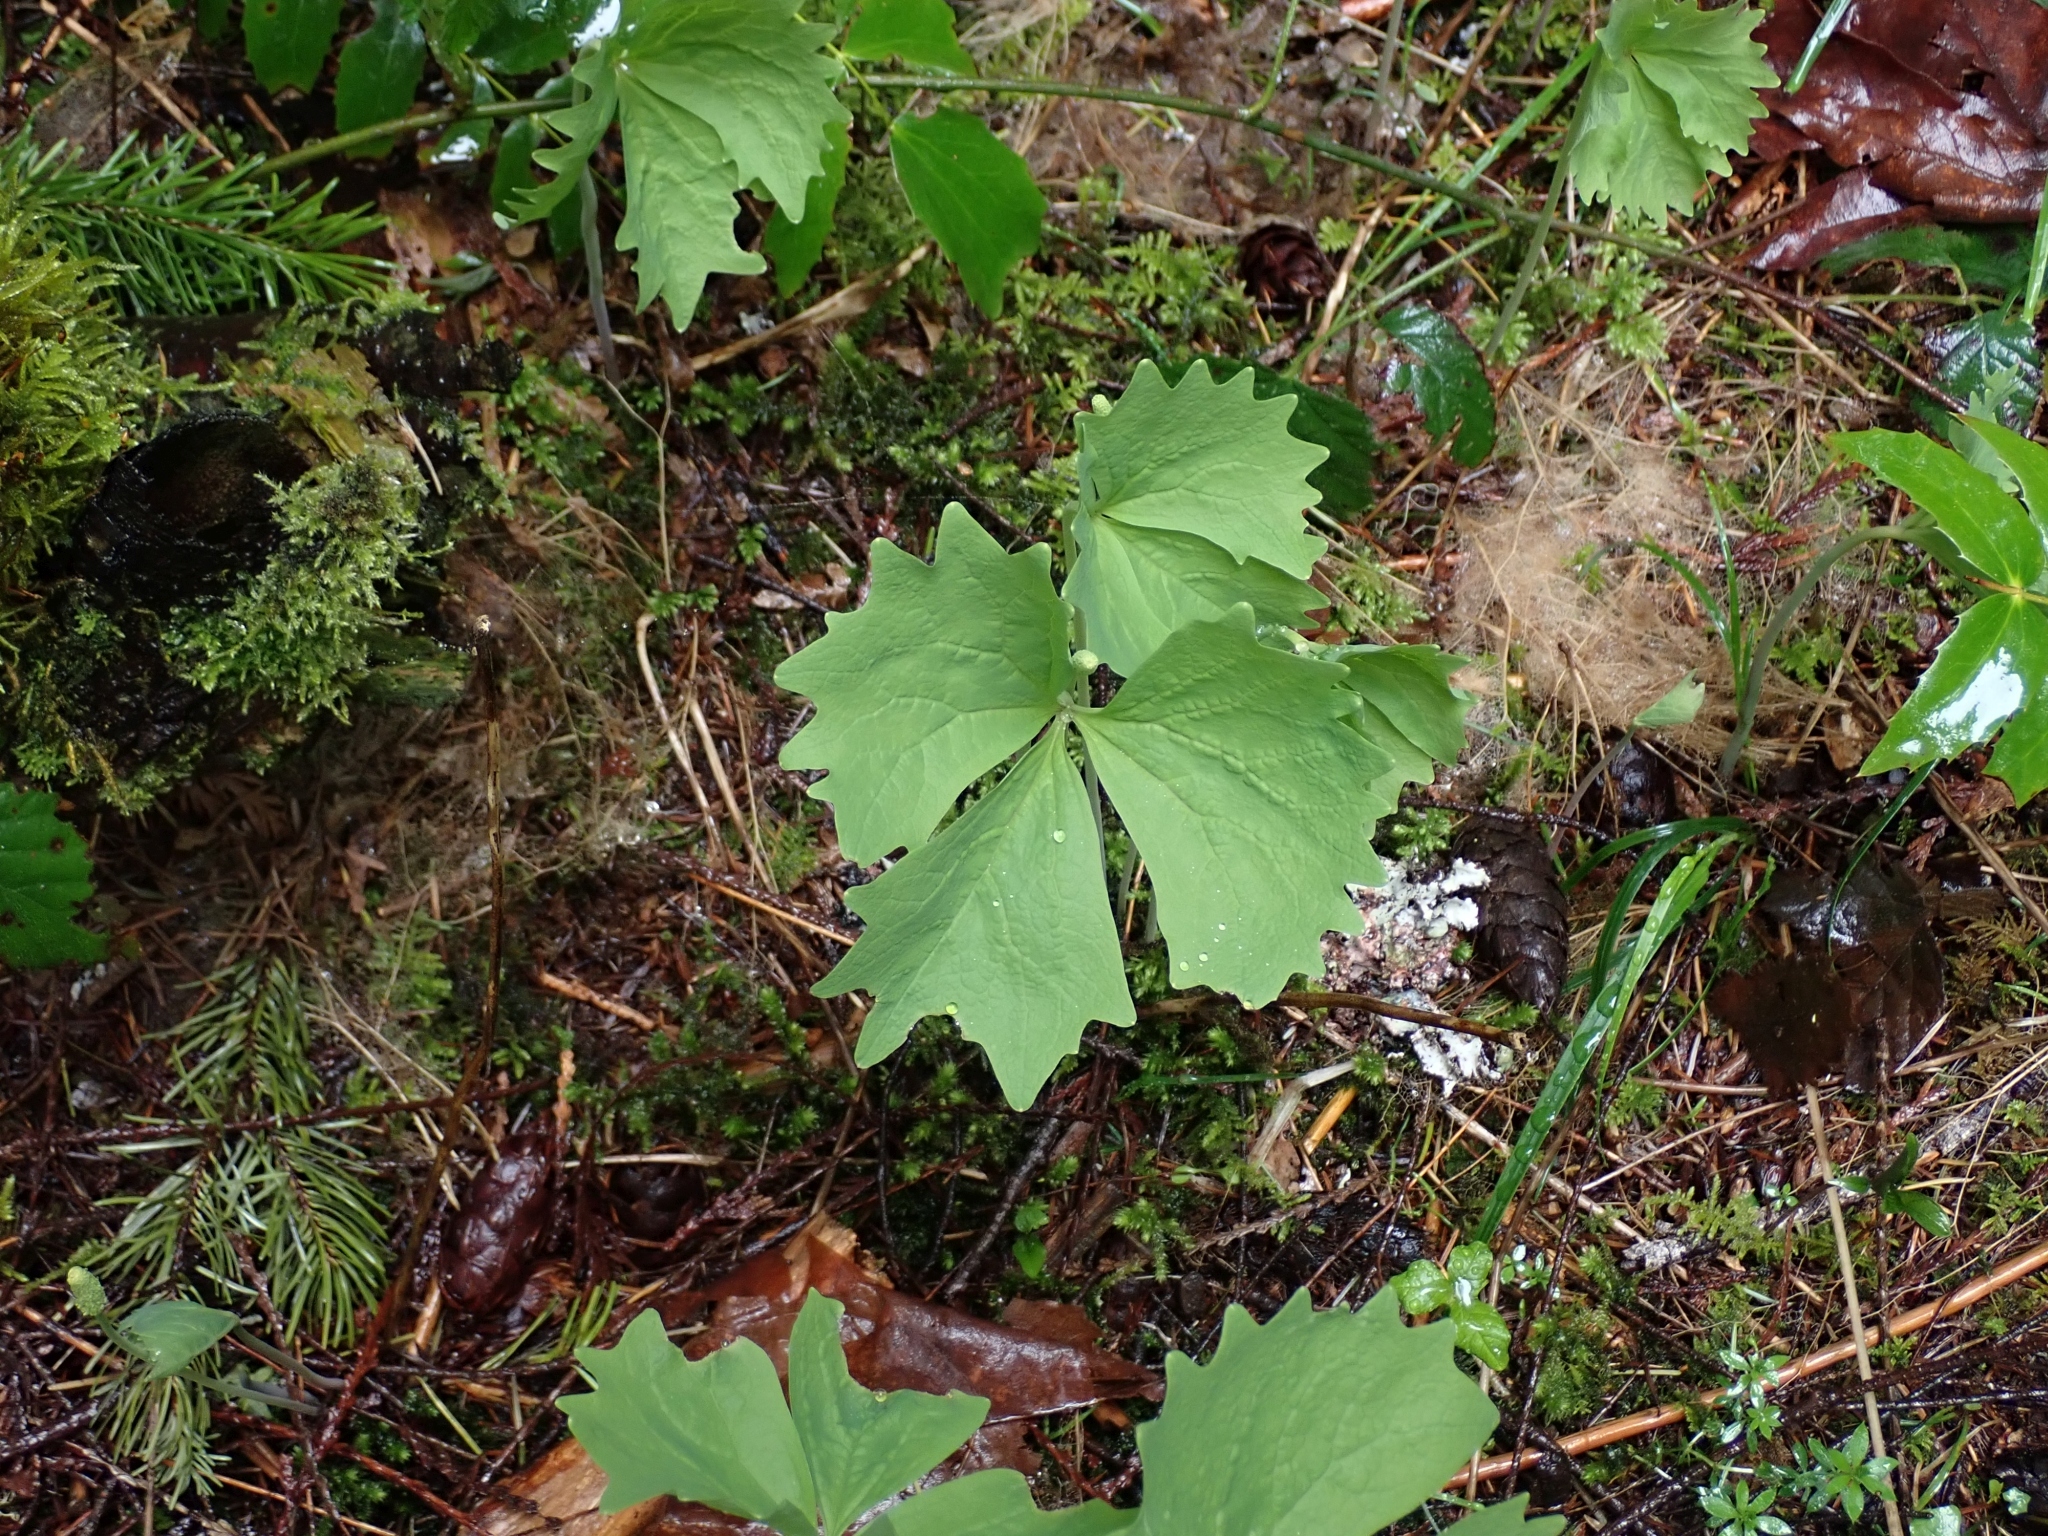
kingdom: Plantae
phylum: Tracheophyta
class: Magnoliopsida
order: Ranunculales
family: Berberidaceae
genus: Achlys
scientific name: Achlys triphylla
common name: Vanilla-leaf
